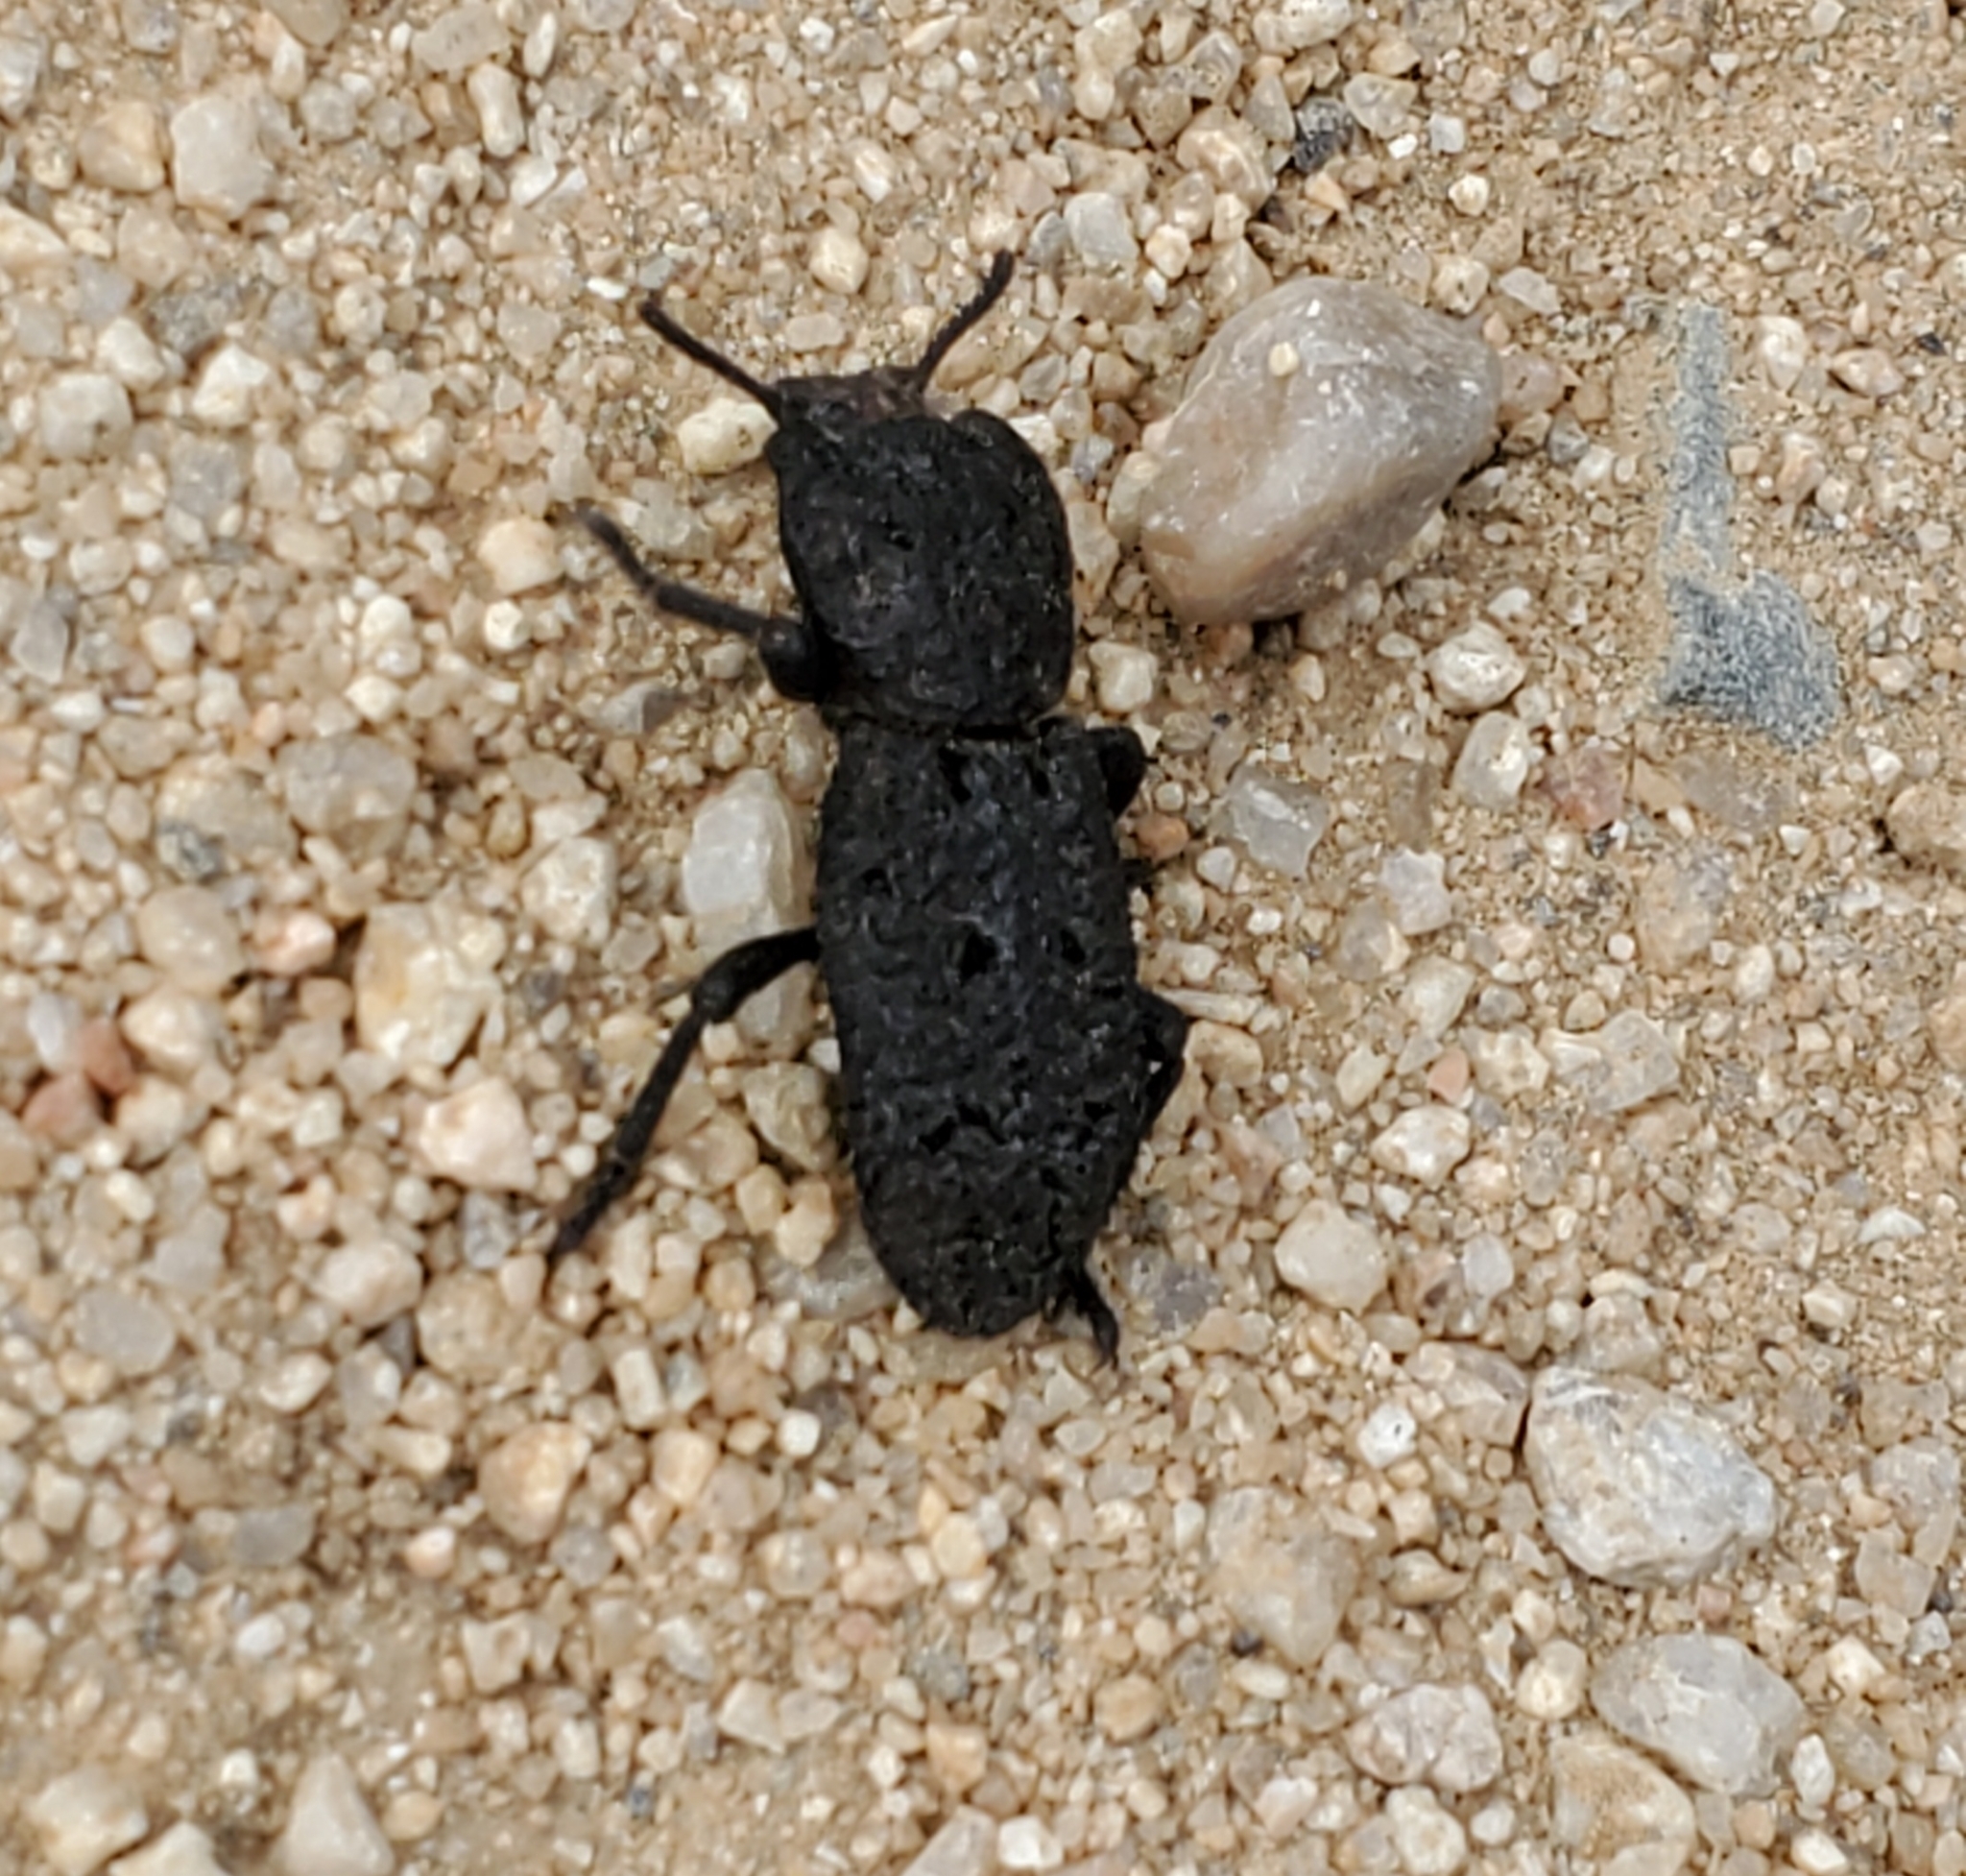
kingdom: Animalia
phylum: Arthropoda
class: Insecta
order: Coleoptera
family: Zopheridae
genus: Phloeodes
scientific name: Phloeodes diabolicus
